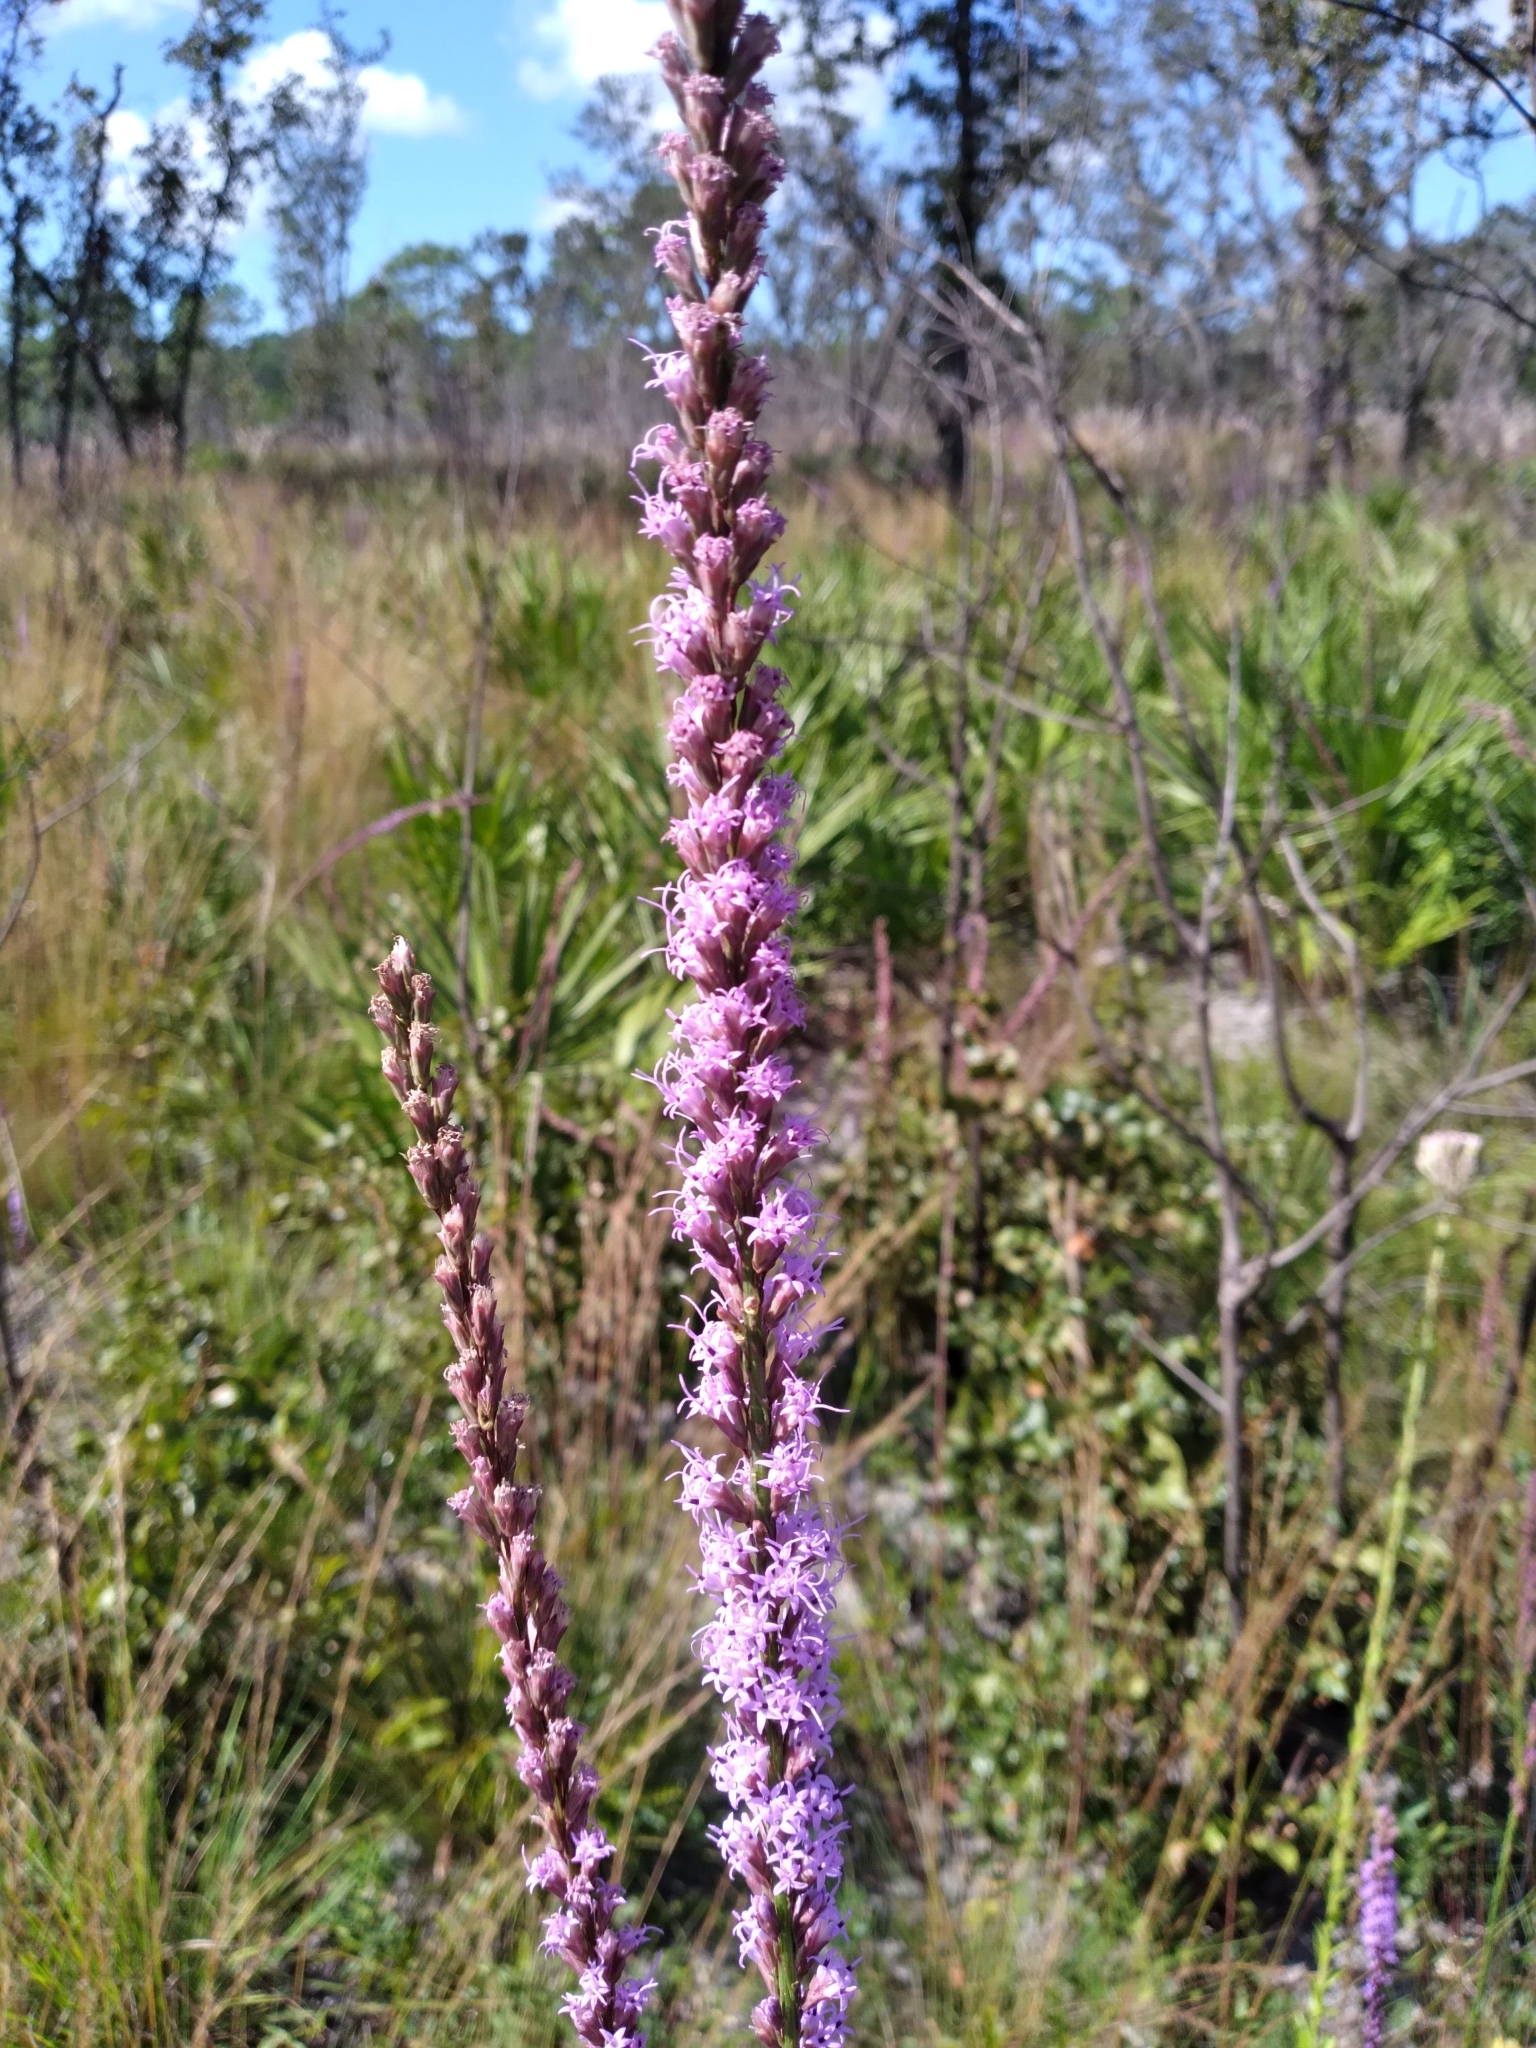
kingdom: Plantae
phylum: Tracheophyta
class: Magnoliopsida
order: Asterales
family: Asteraceae
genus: Liatris
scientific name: Liatris quadriflora
